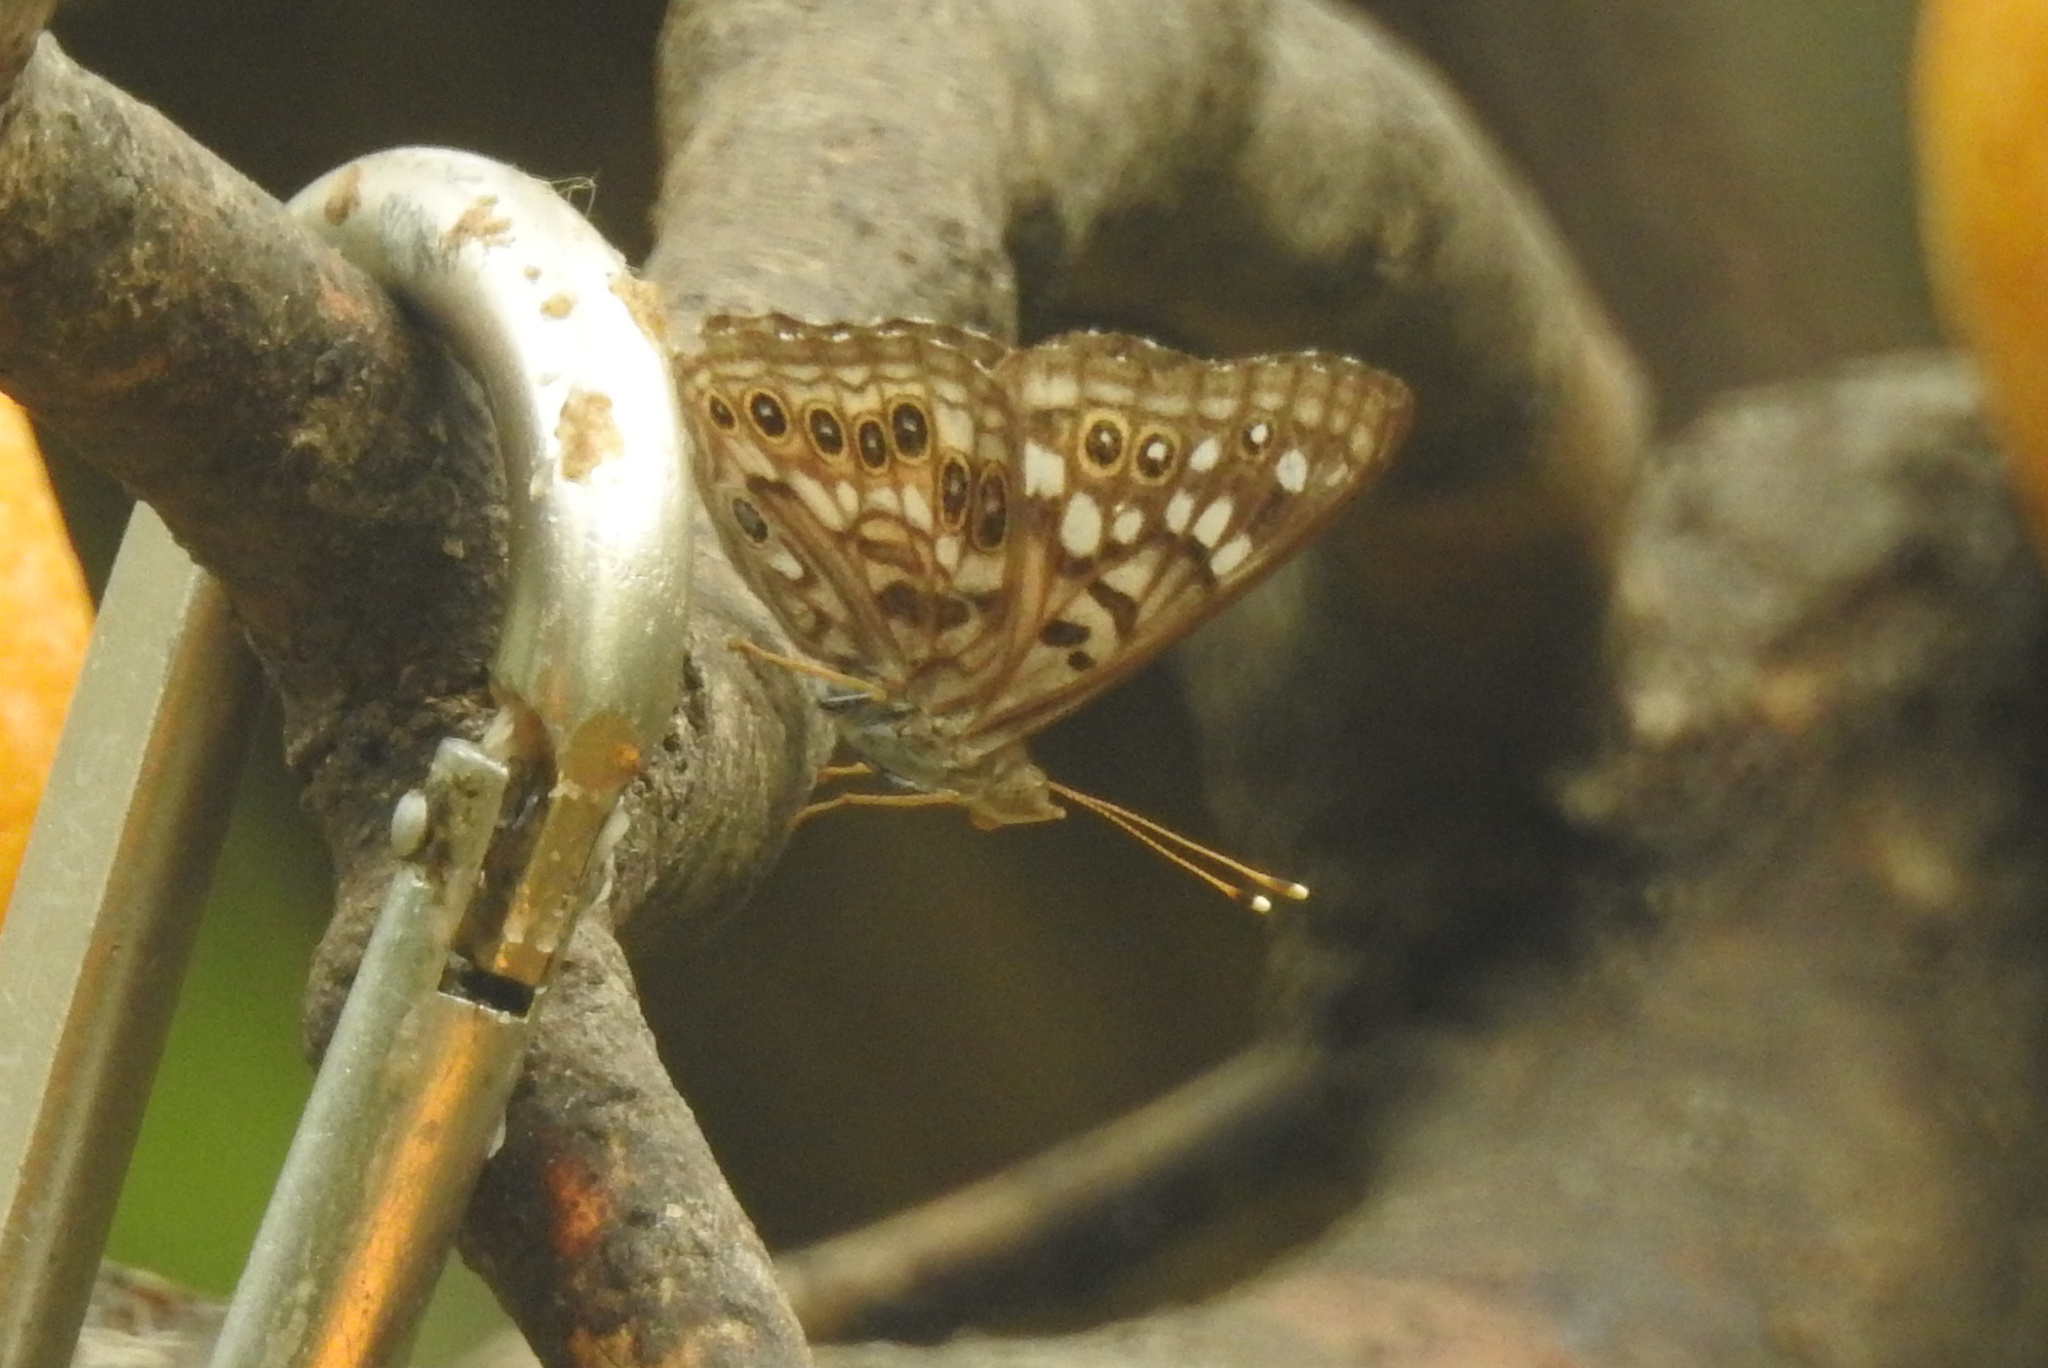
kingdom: Animalia
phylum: Arthropoda
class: Insecta
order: Lepidoptera
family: Nymphalidae
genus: Asterocampa
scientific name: Asterocampa celtis
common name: Hackberry emperor
